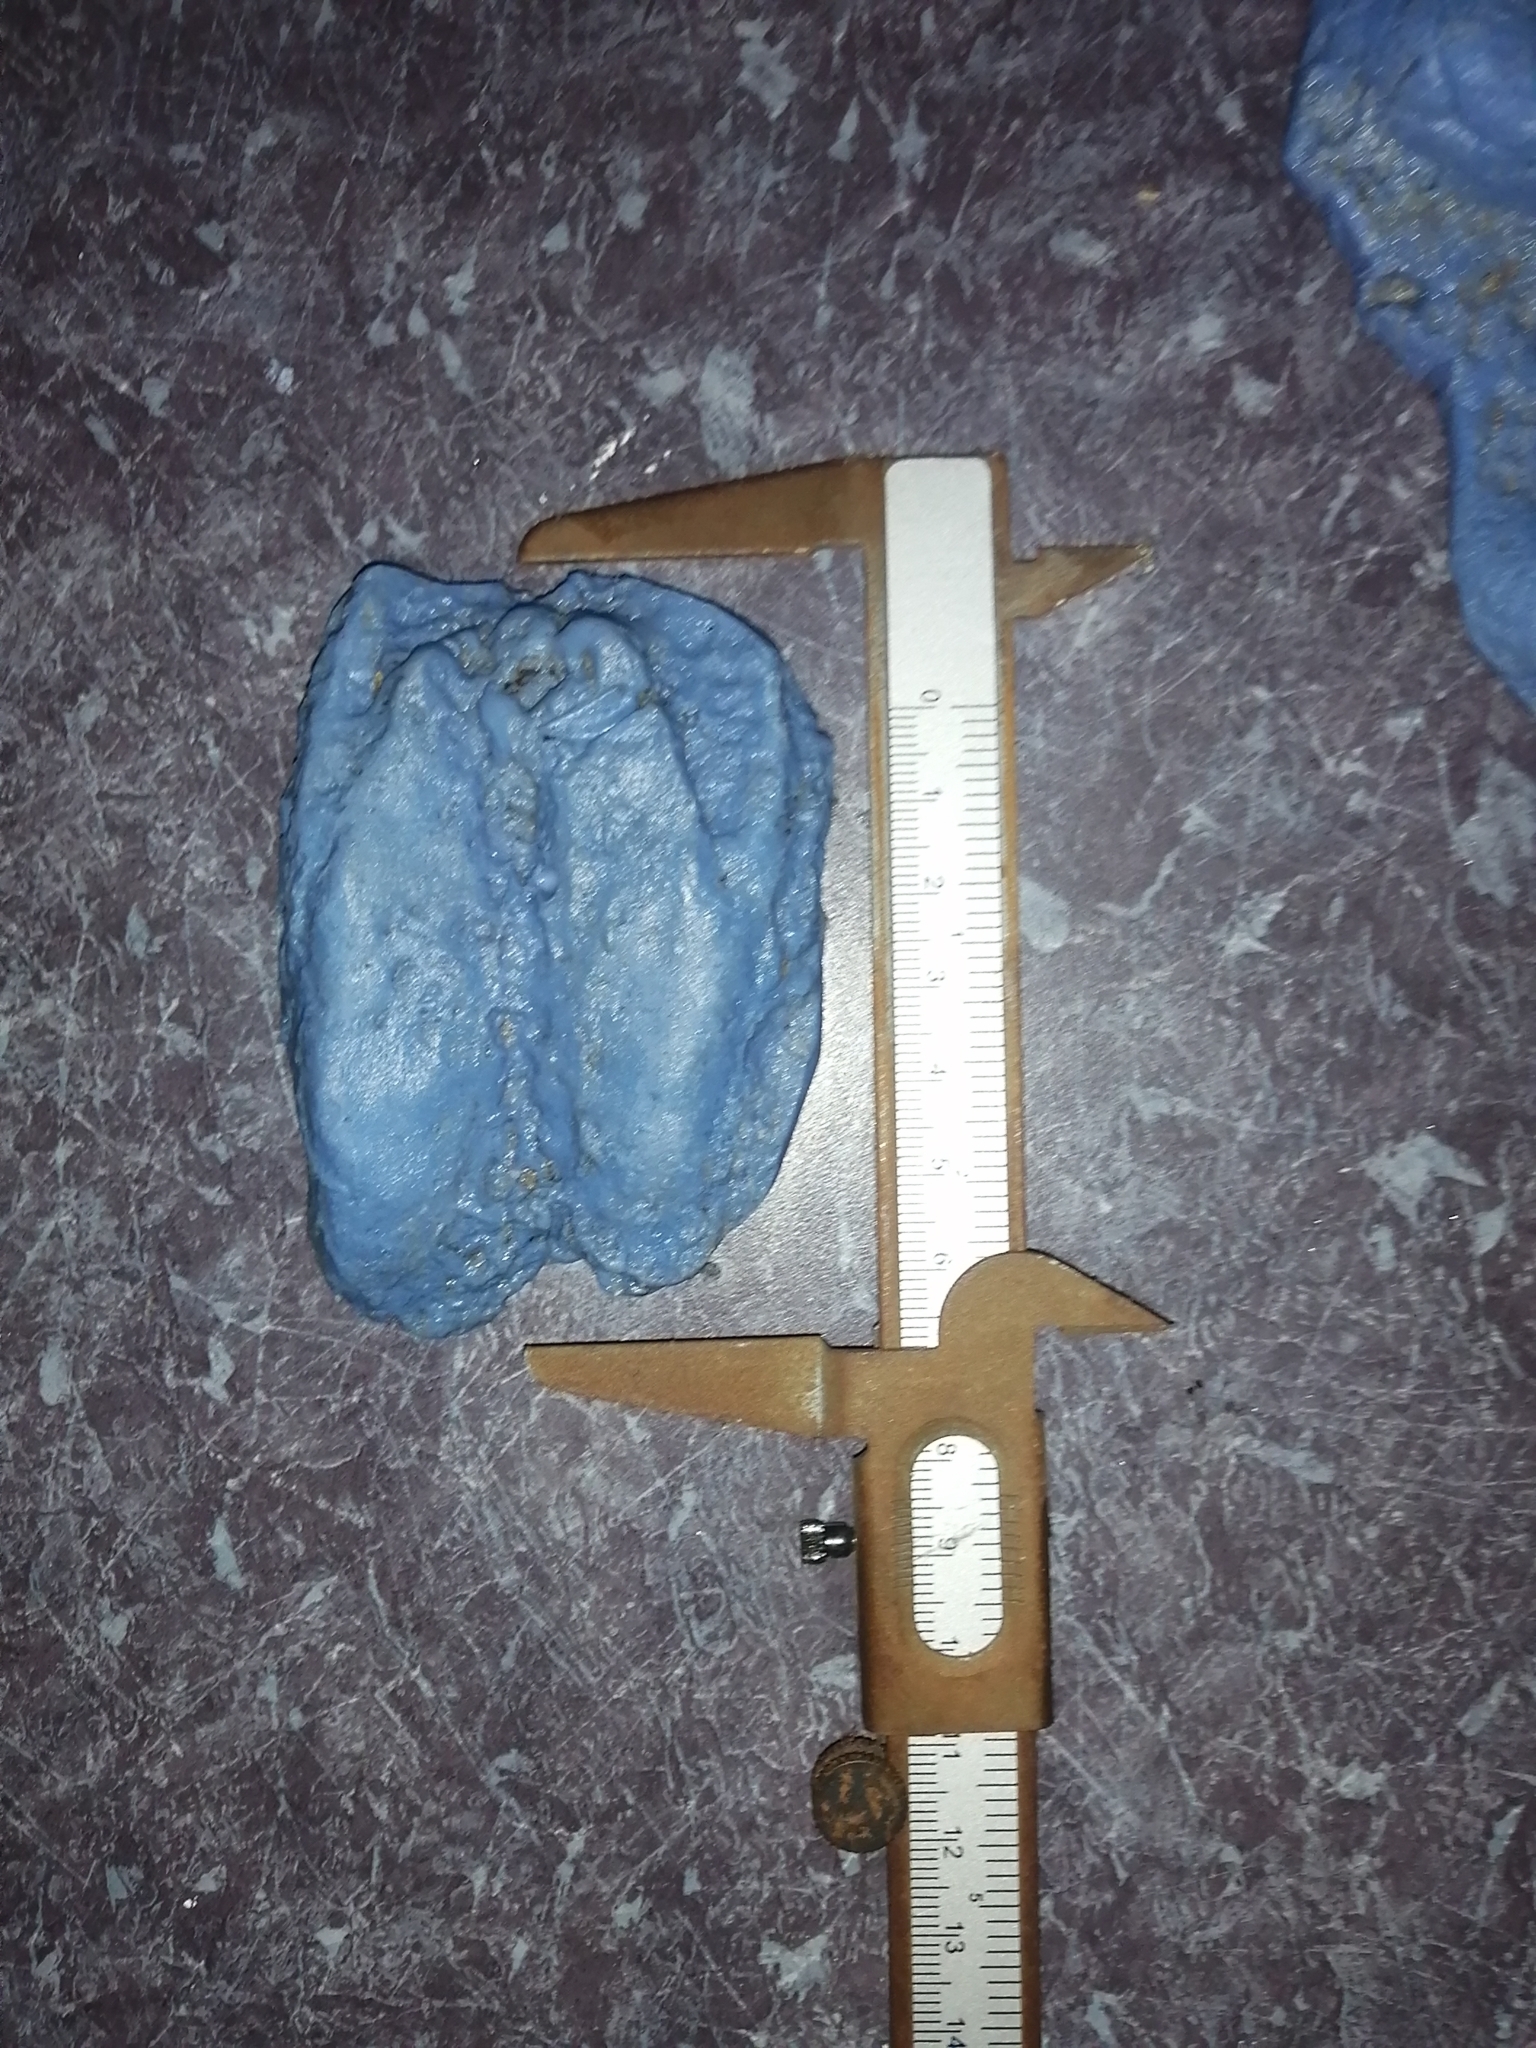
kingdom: Animalia
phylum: Chordata
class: Mammalia
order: Artiodactyla
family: Cervidae
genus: Odocoileus
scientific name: Odocoileus virginianus
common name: White-tailed deer
